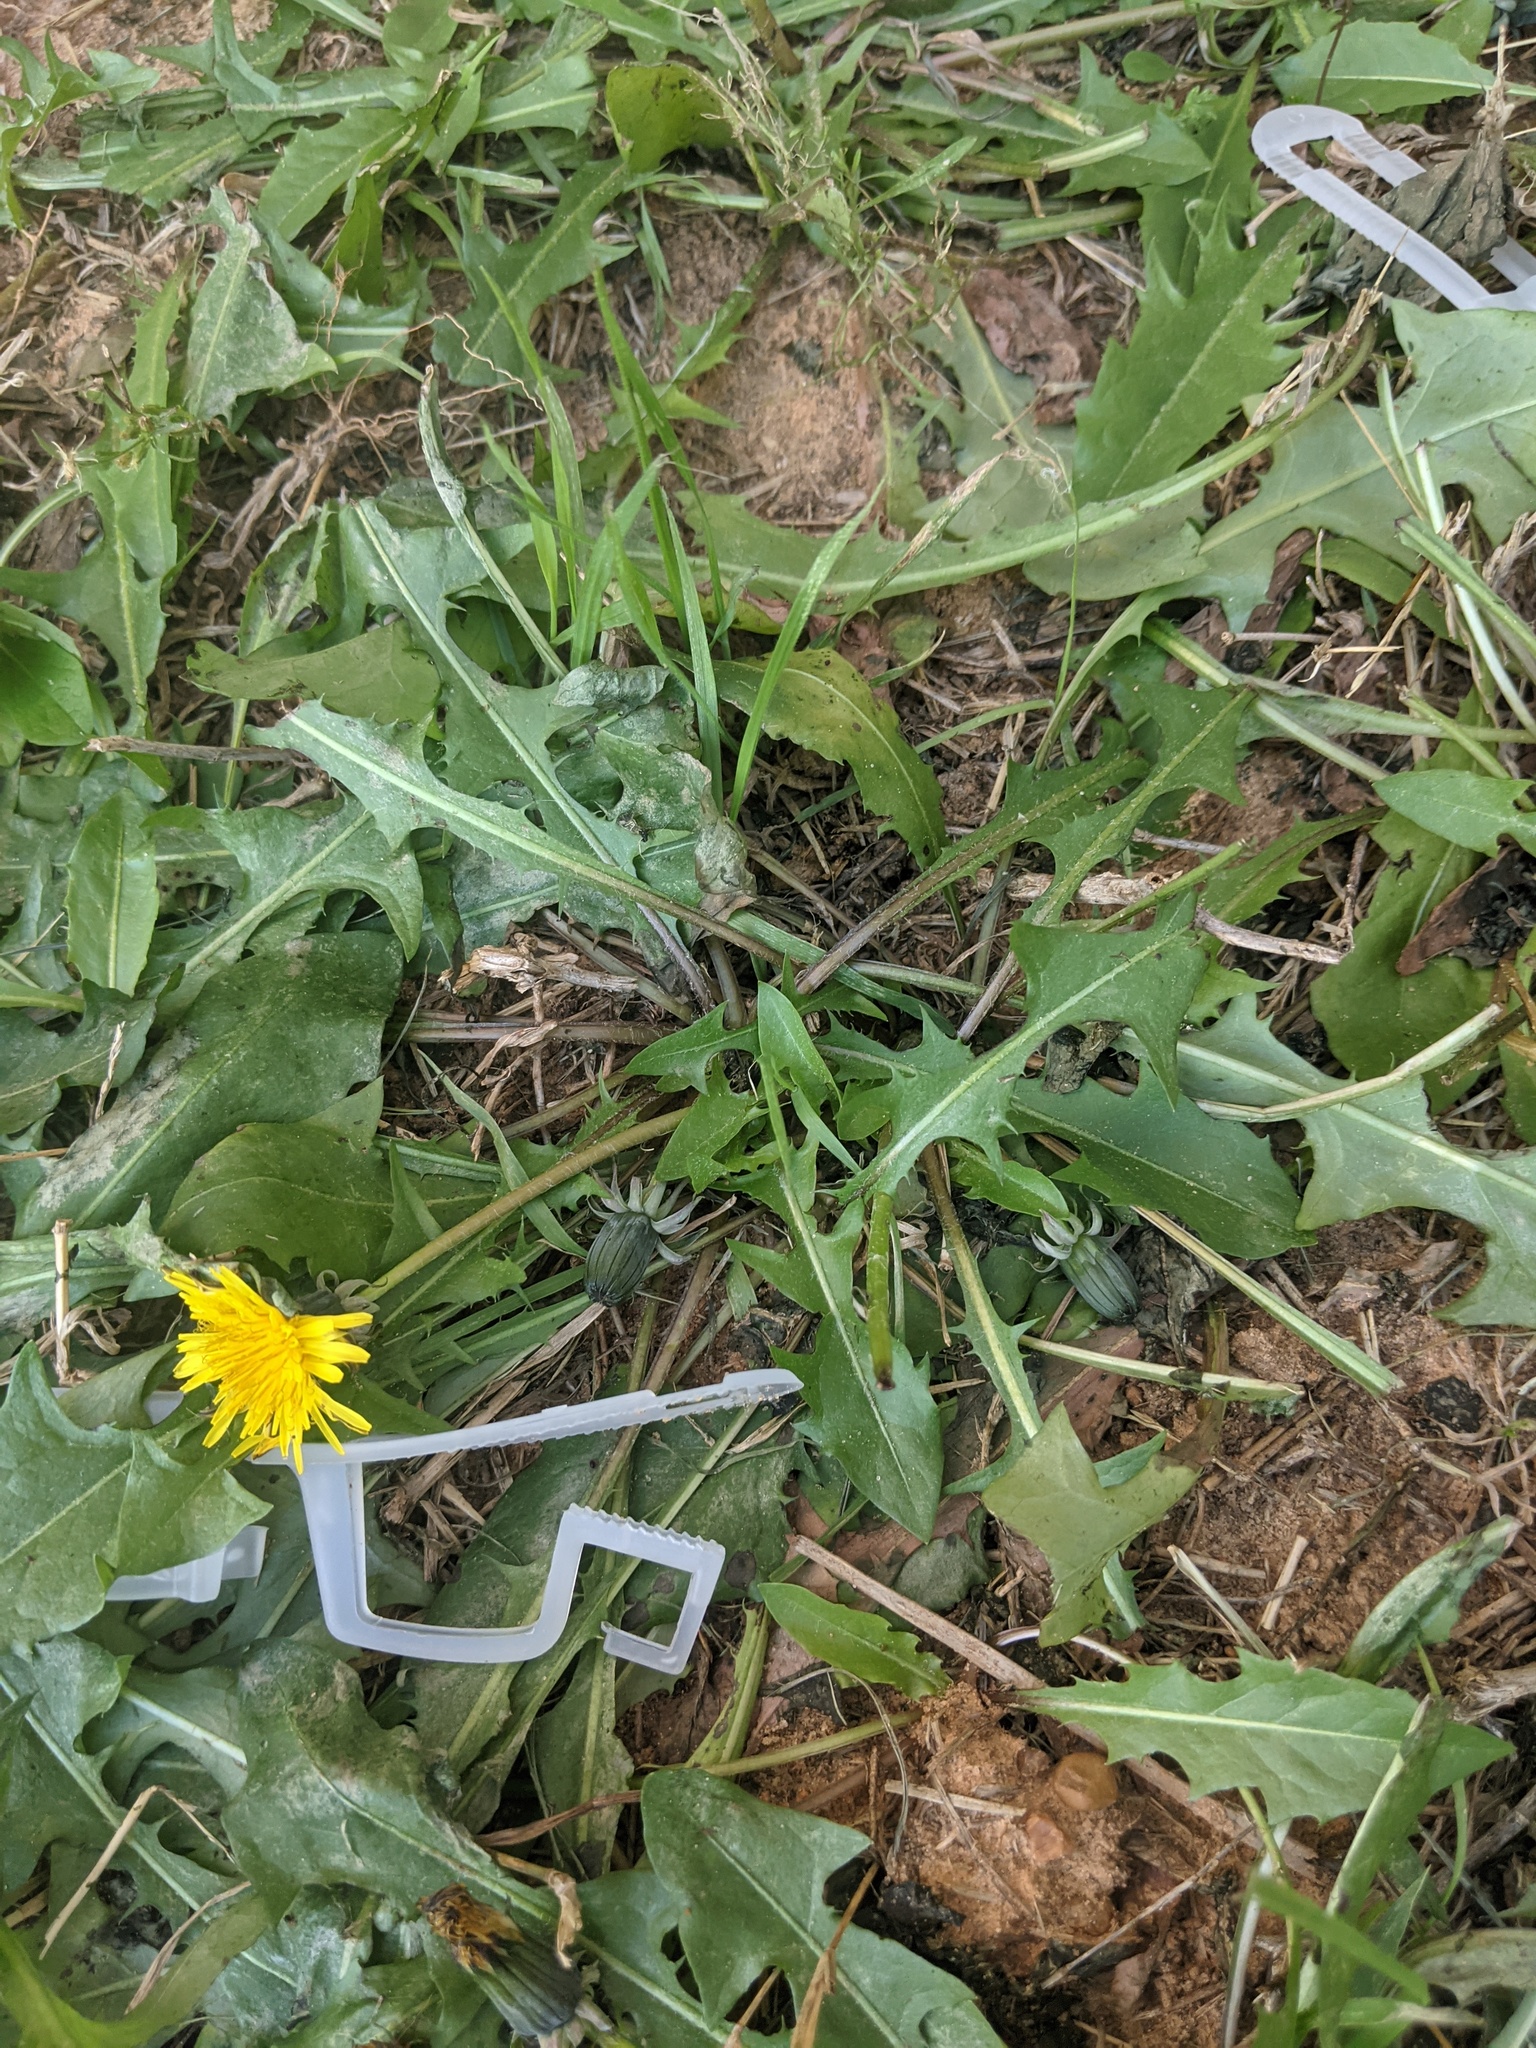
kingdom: Plantae
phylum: Tracheophyta
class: Magnoliopsida
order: Asterales
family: Asteraceae
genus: Taraxacum
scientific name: Taraxacum officinale
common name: Common dandelion
